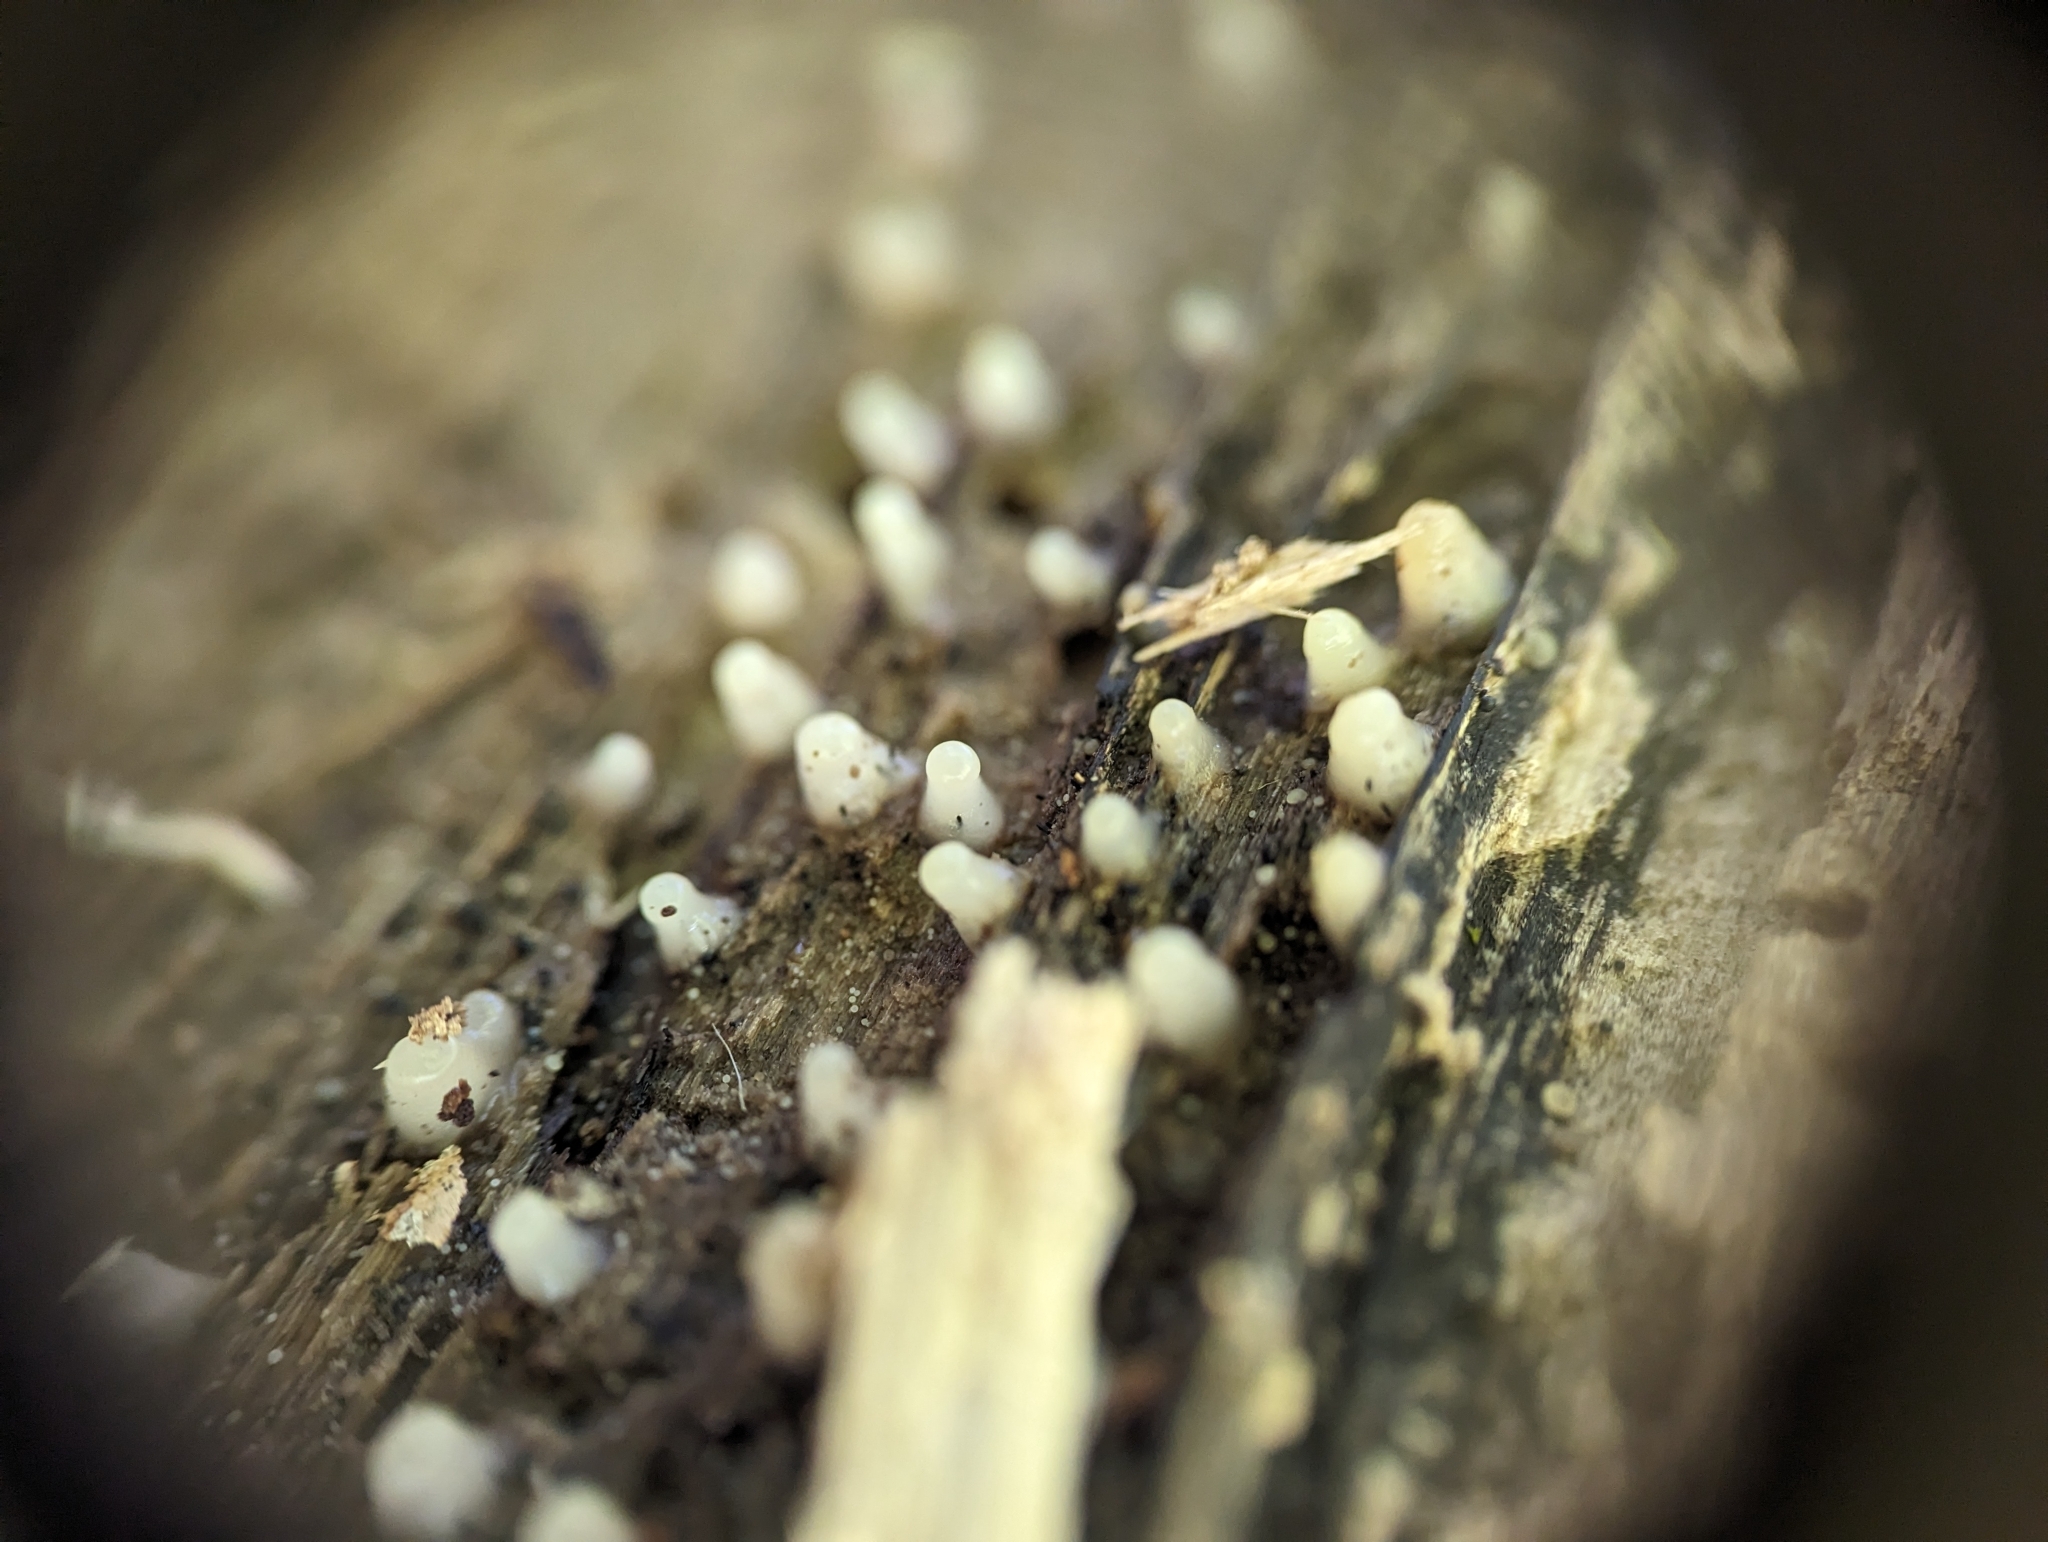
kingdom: Fungi
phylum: Basidiomycota
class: Atractiellomycetes
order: Atractiellales
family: Phleogenaceae
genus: Helicogloea
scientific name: Helicogloea compressa
